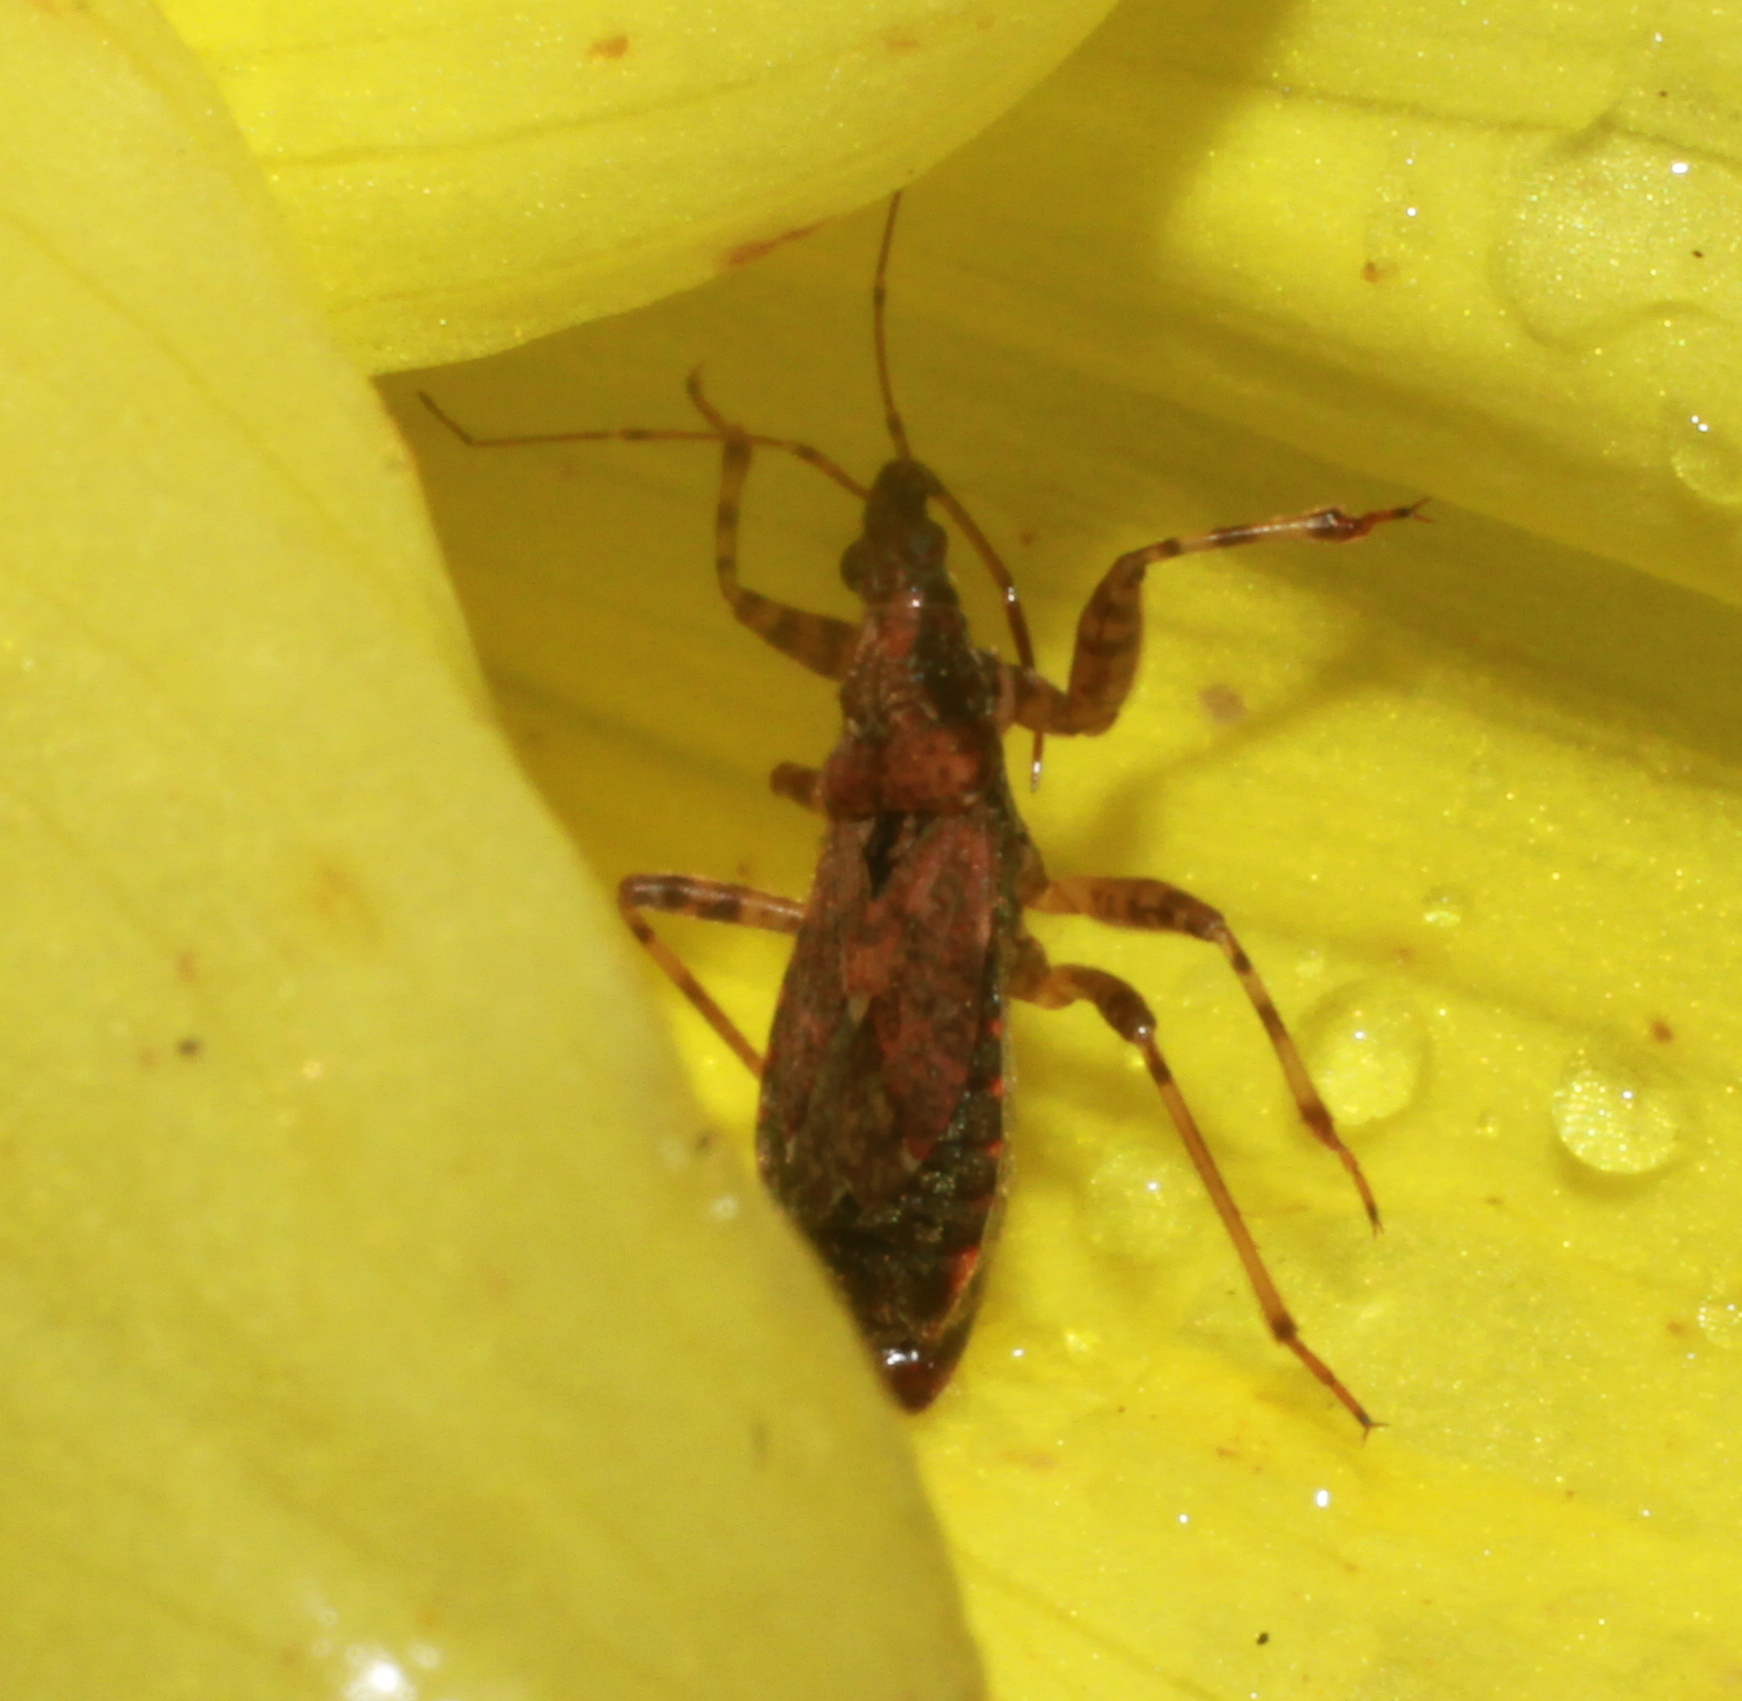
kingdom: Animalia
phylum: Arthropoda
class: Insecta
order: Hemiptera
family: Nabidae
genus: Himacerus
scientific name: Himacerus mirmicoides
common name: Ant damsel bug
